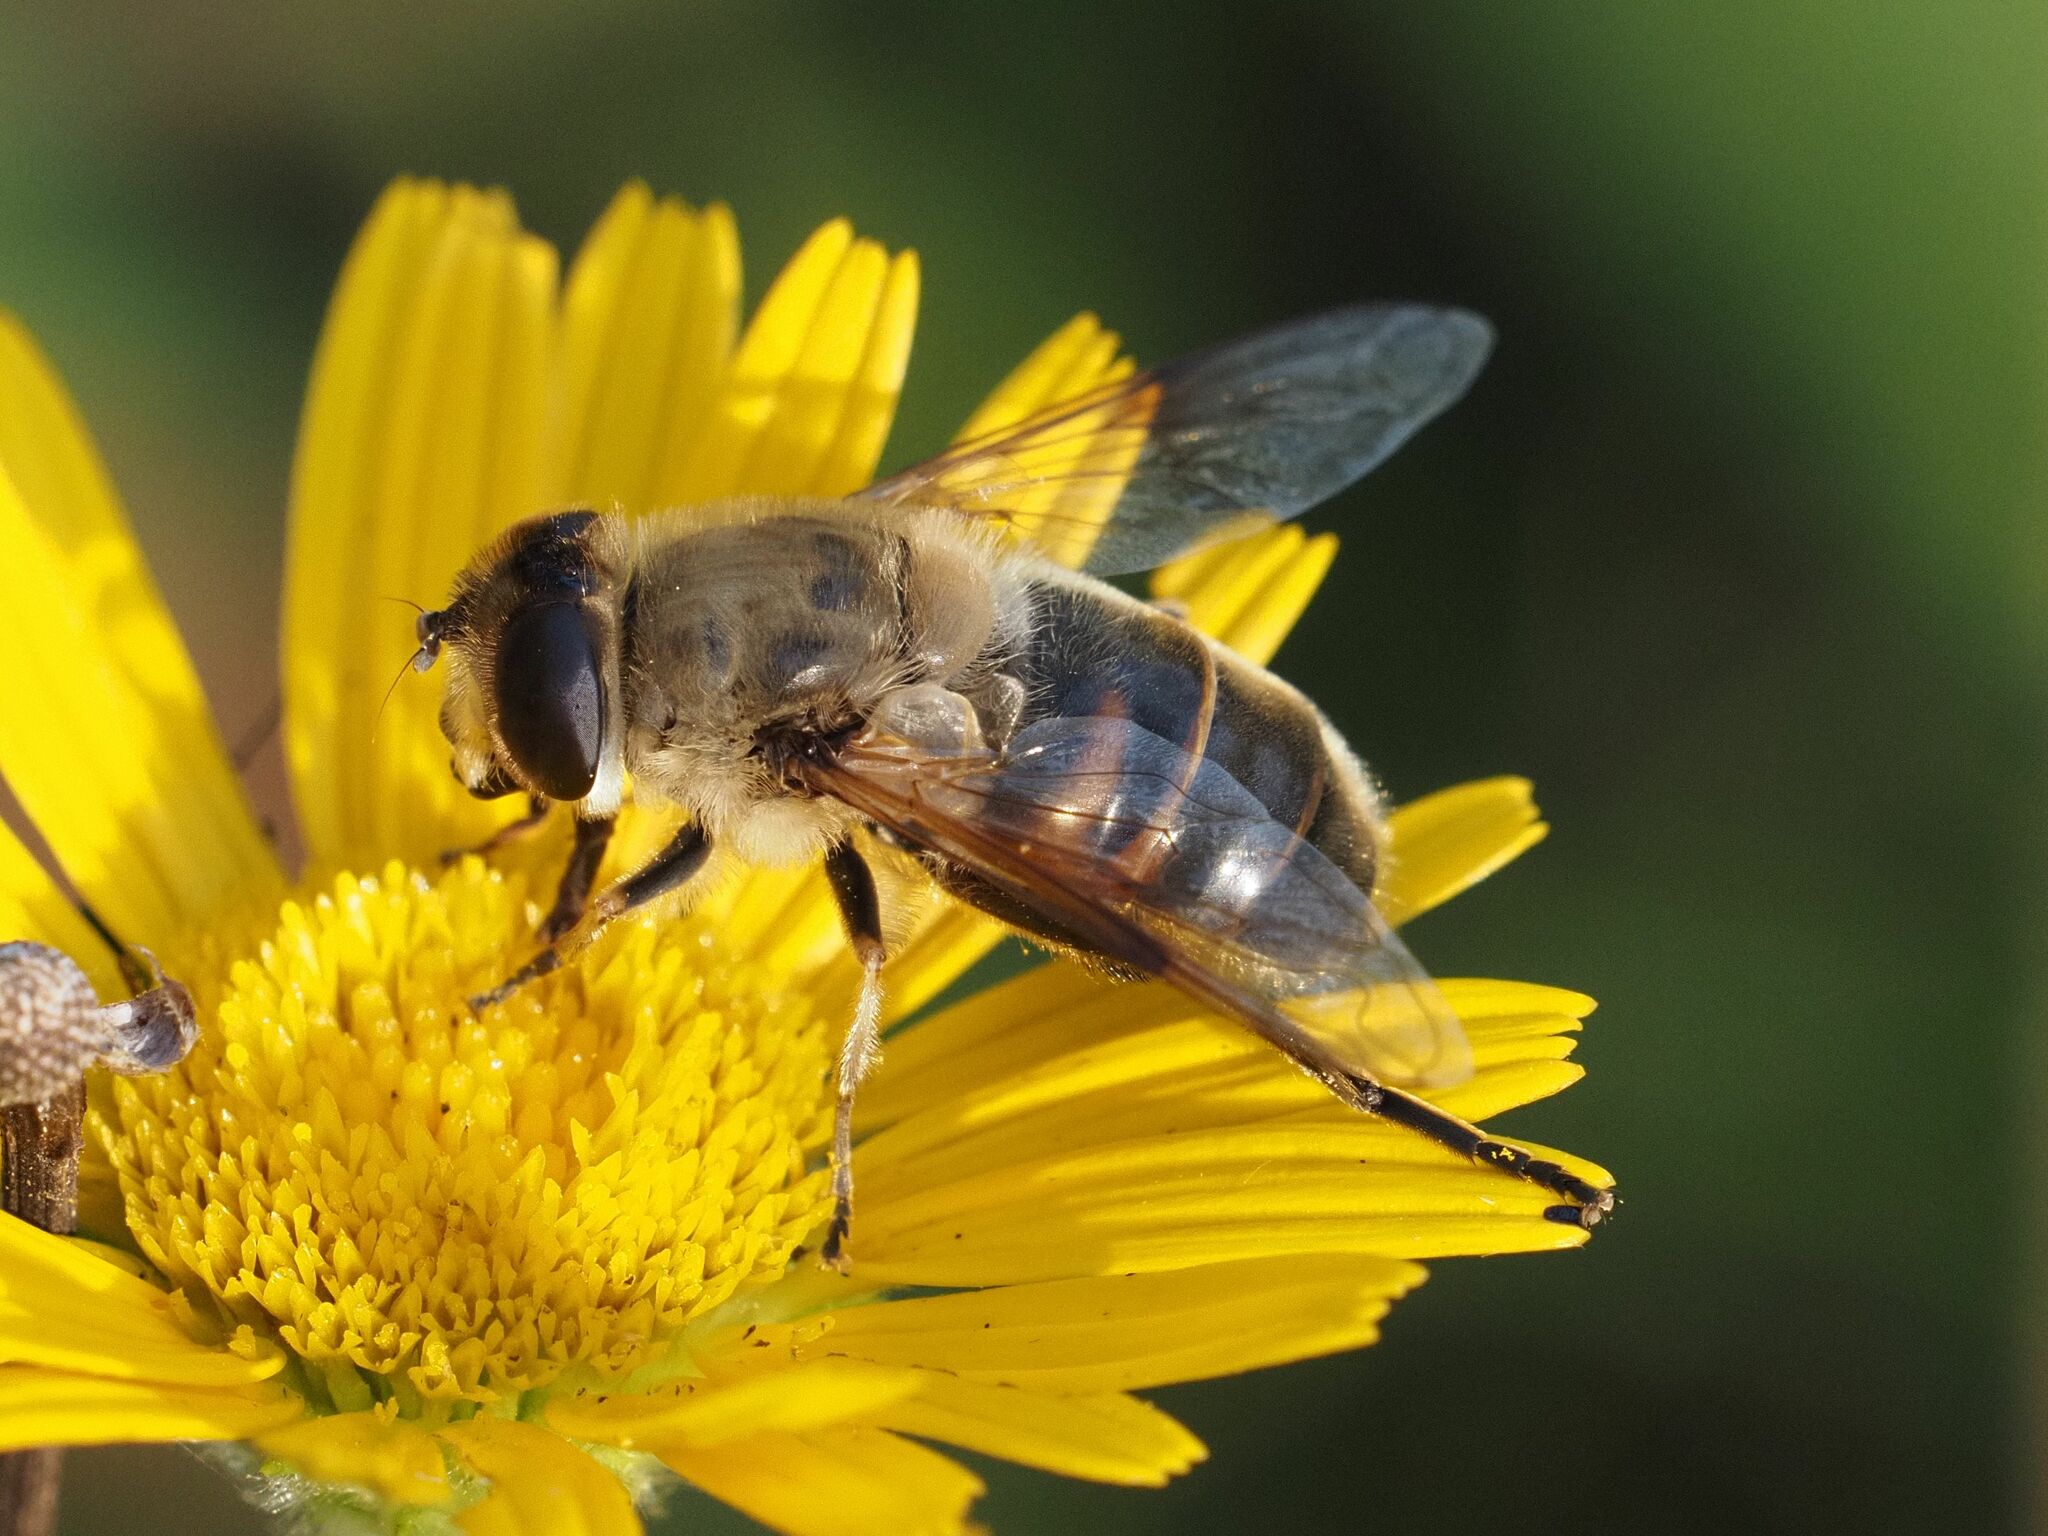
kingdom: Animalia
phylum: Arthropoda
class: Insecta
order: Diptera
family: Syrphidae
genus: Eristalis
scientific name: Eristalis tenax
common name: Drone fly
